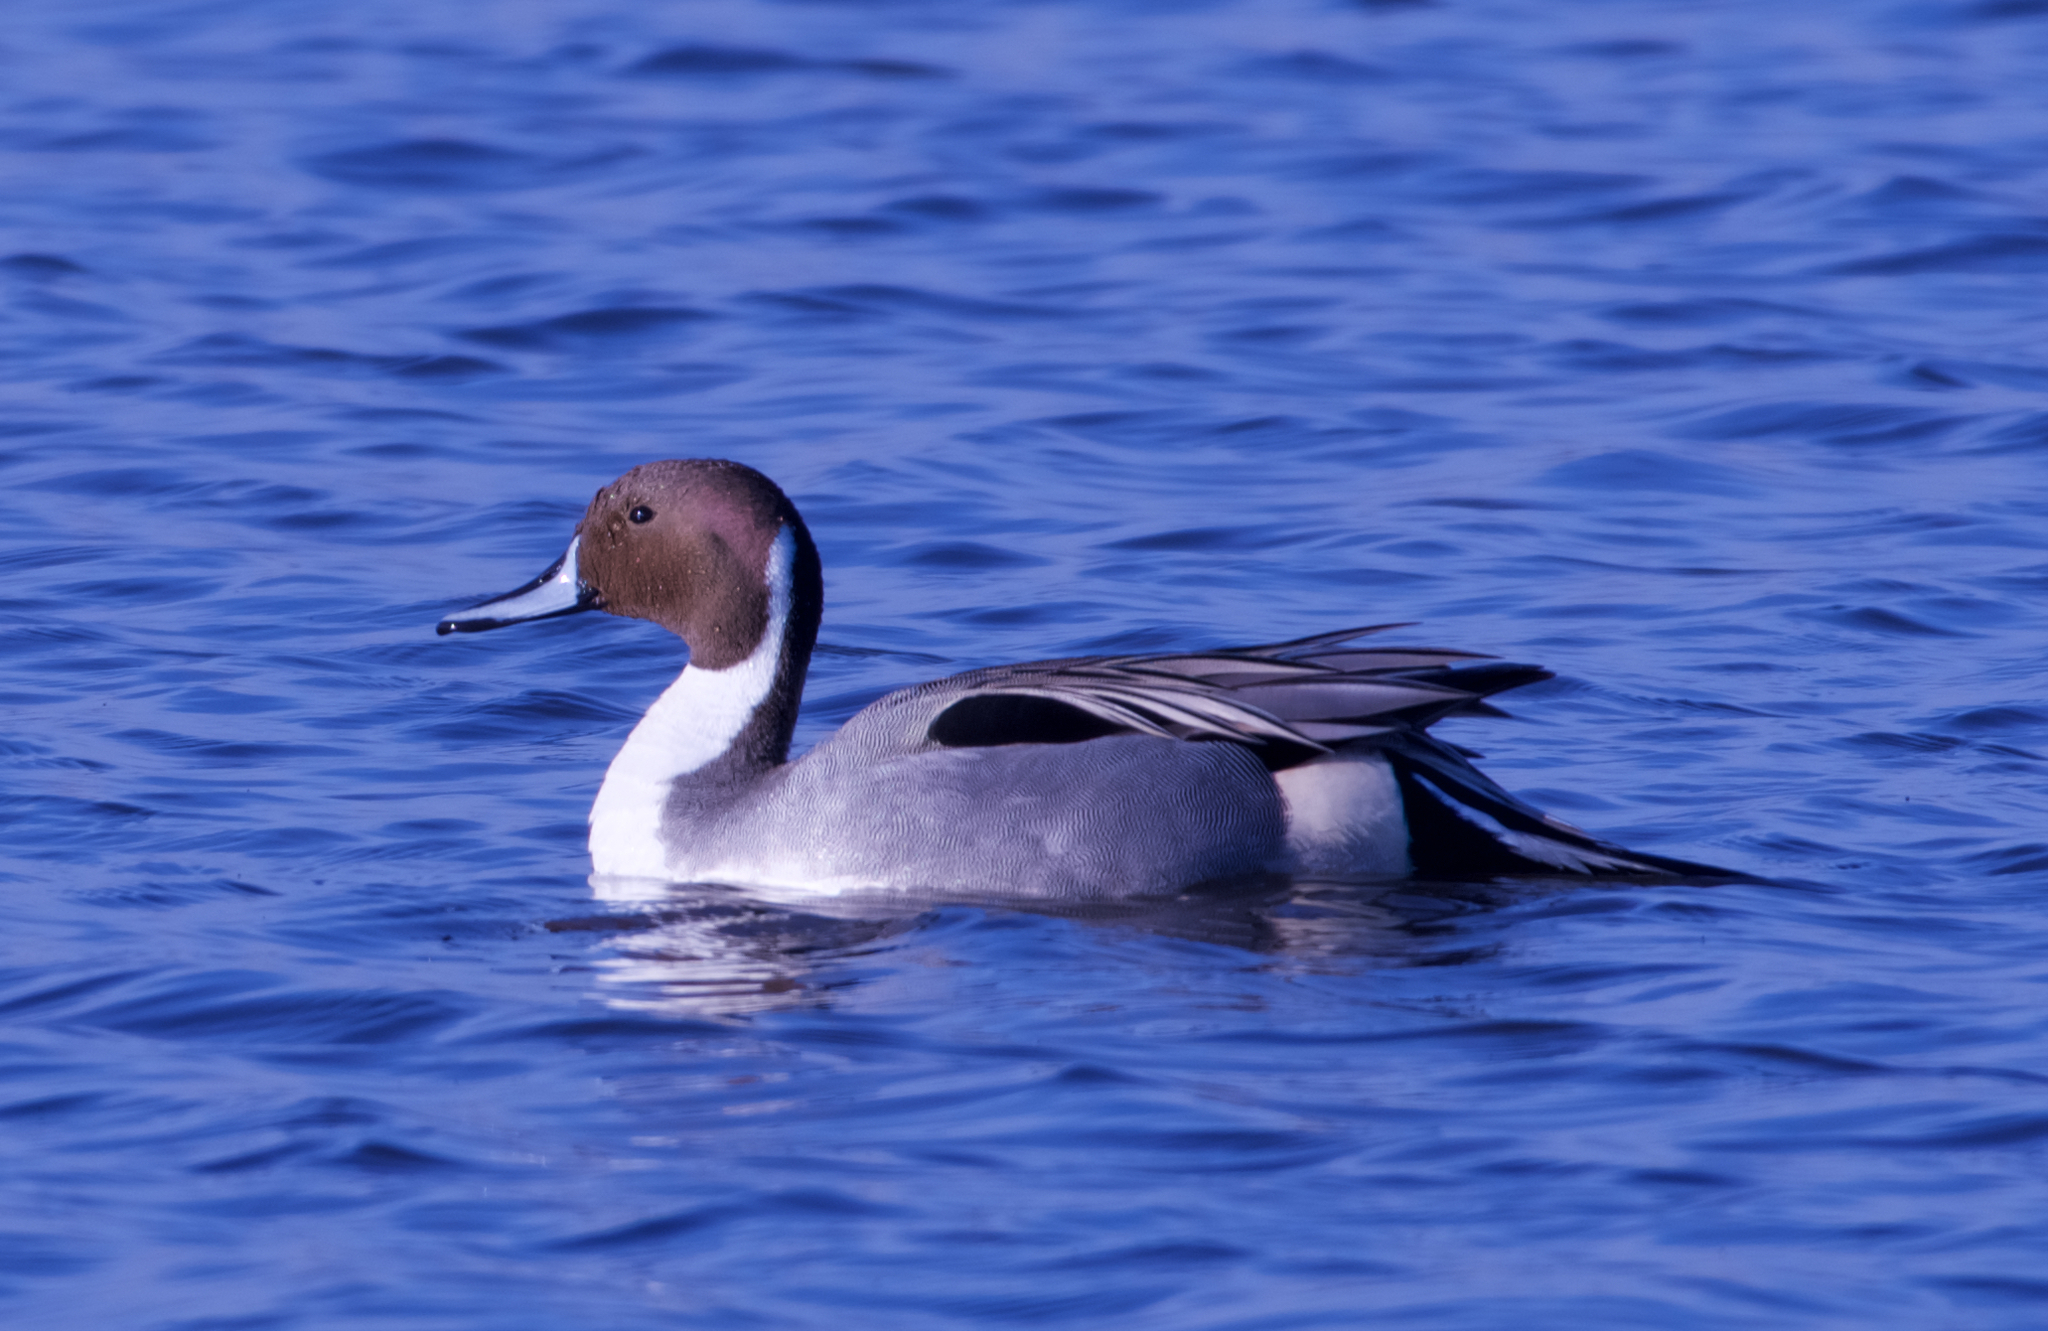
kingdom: Animalia
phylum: Chordata
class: Aves
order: Anseriformes
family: Anatidae
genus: Anas
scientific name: Anas acuta
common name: Northern pintail
